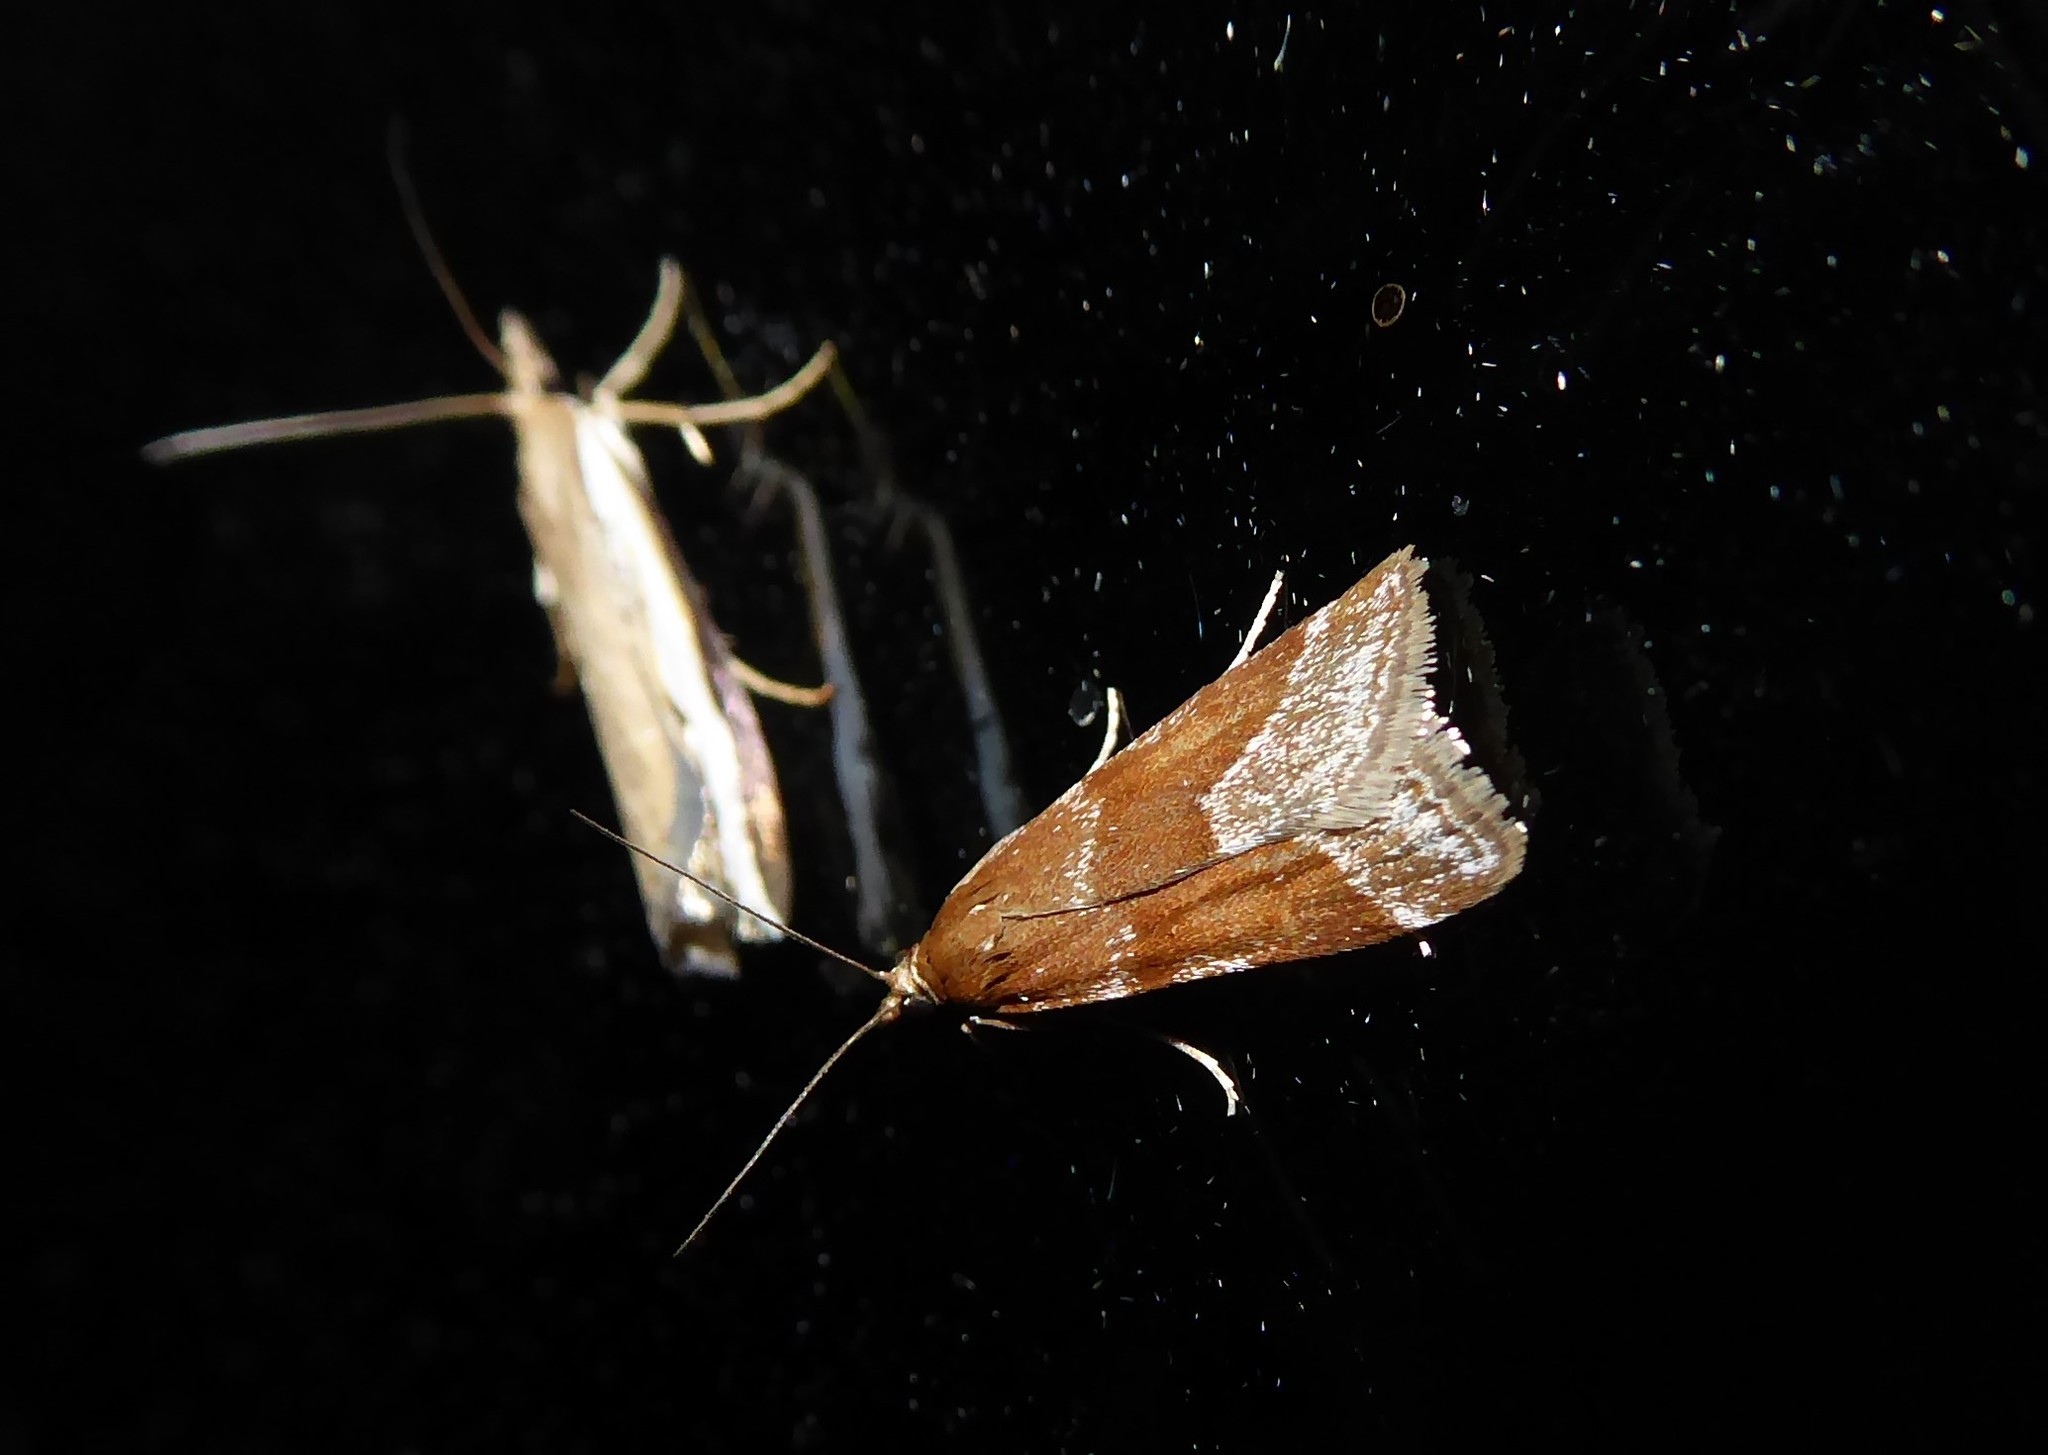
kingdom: Animalia
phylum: Arthropoda
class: Insecta
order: Lepidoptera
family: Crambidae
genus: Eudonia
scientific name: Eudonia feredayi
